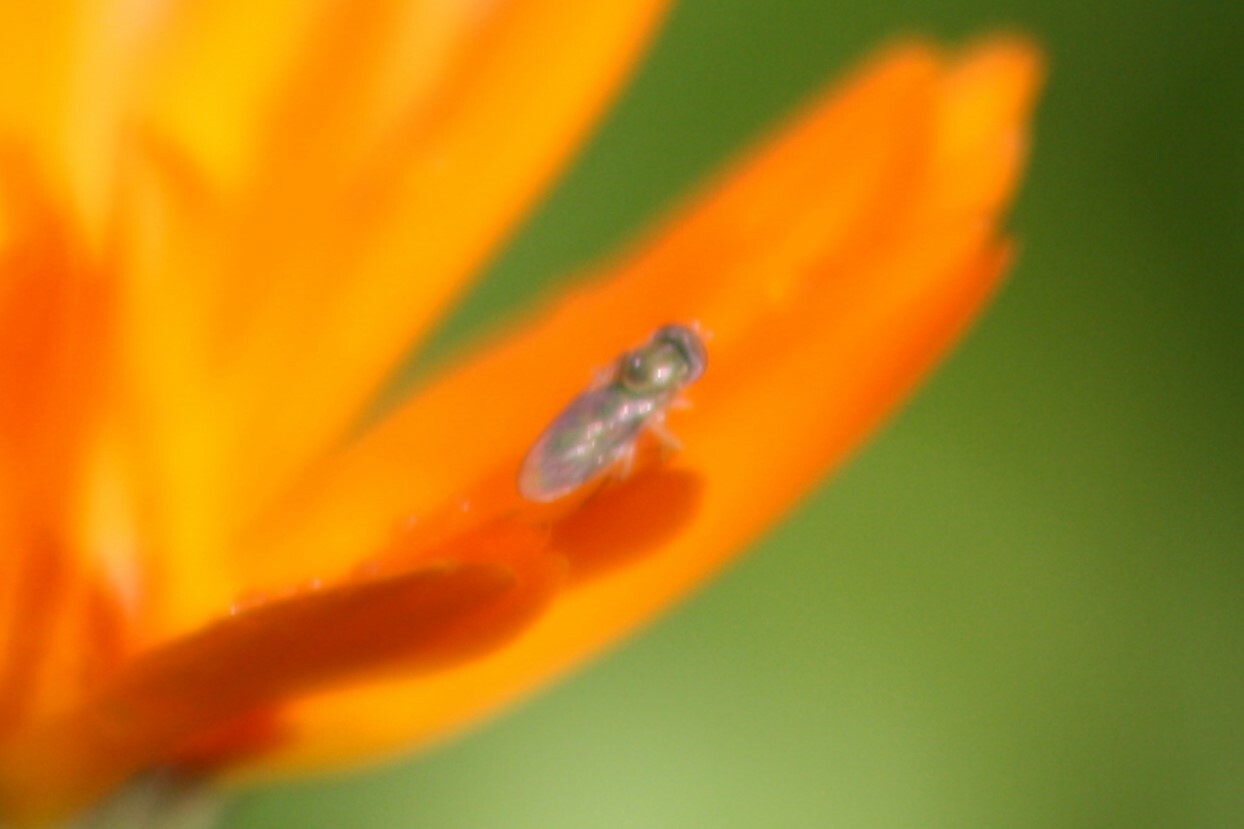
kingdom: Animalia
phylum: Arthropoda
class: Insecta
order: Diptera
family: Syrphidae
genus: Toxomerus
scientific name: Toxomerus marginatus
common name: Syrphid fly
